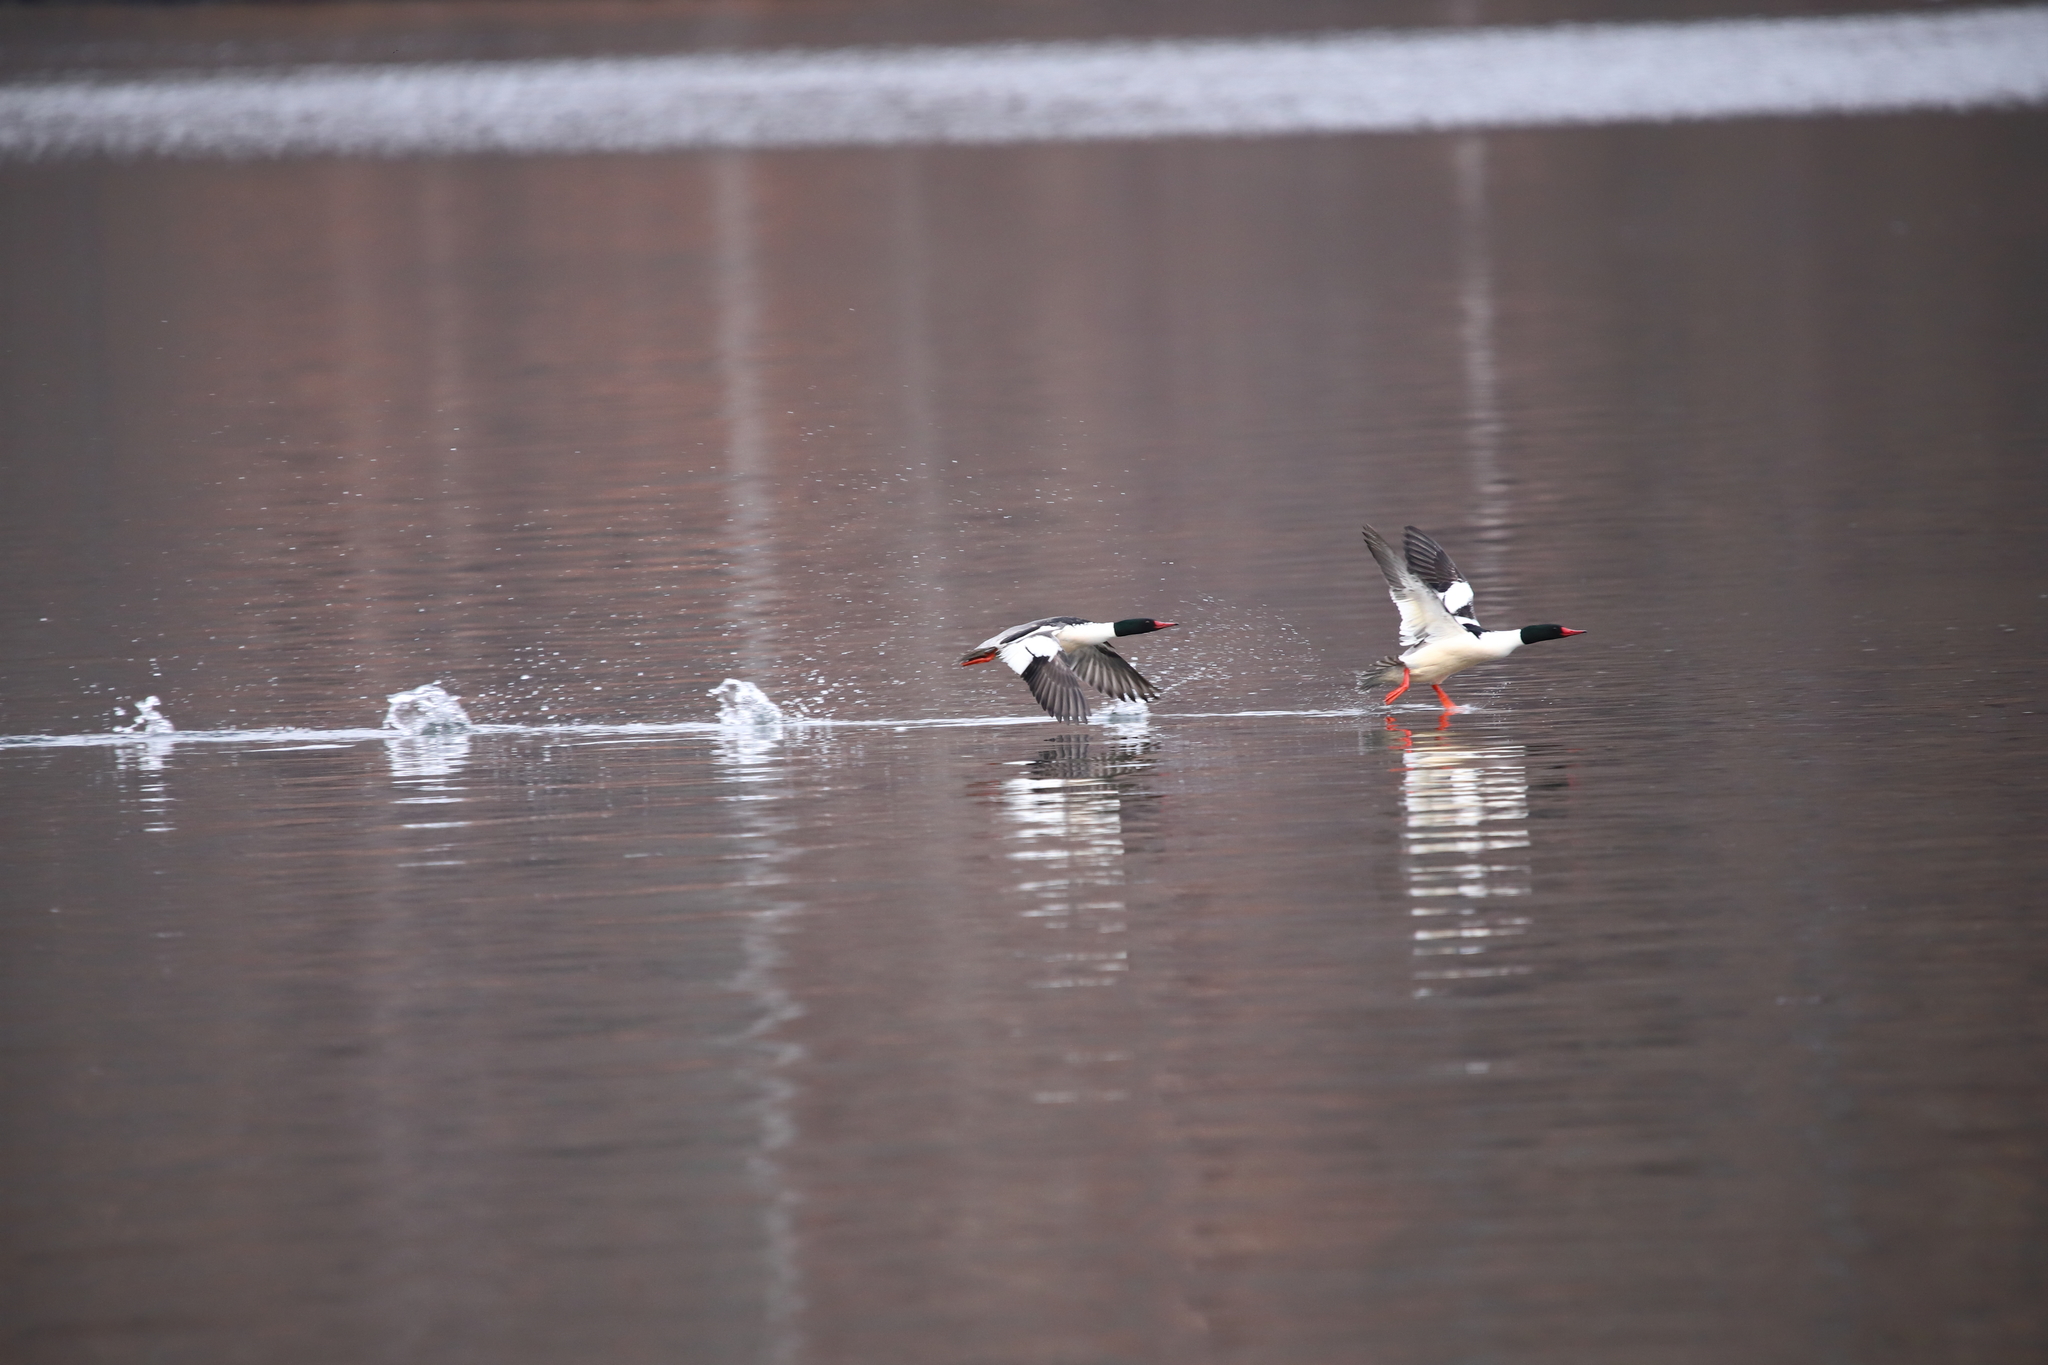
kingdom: Animalia
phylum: Chordata
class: Aves
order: Anseriformes
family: Anatidae
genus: Mergus
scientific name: Mergus merganser
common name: Common merganser
